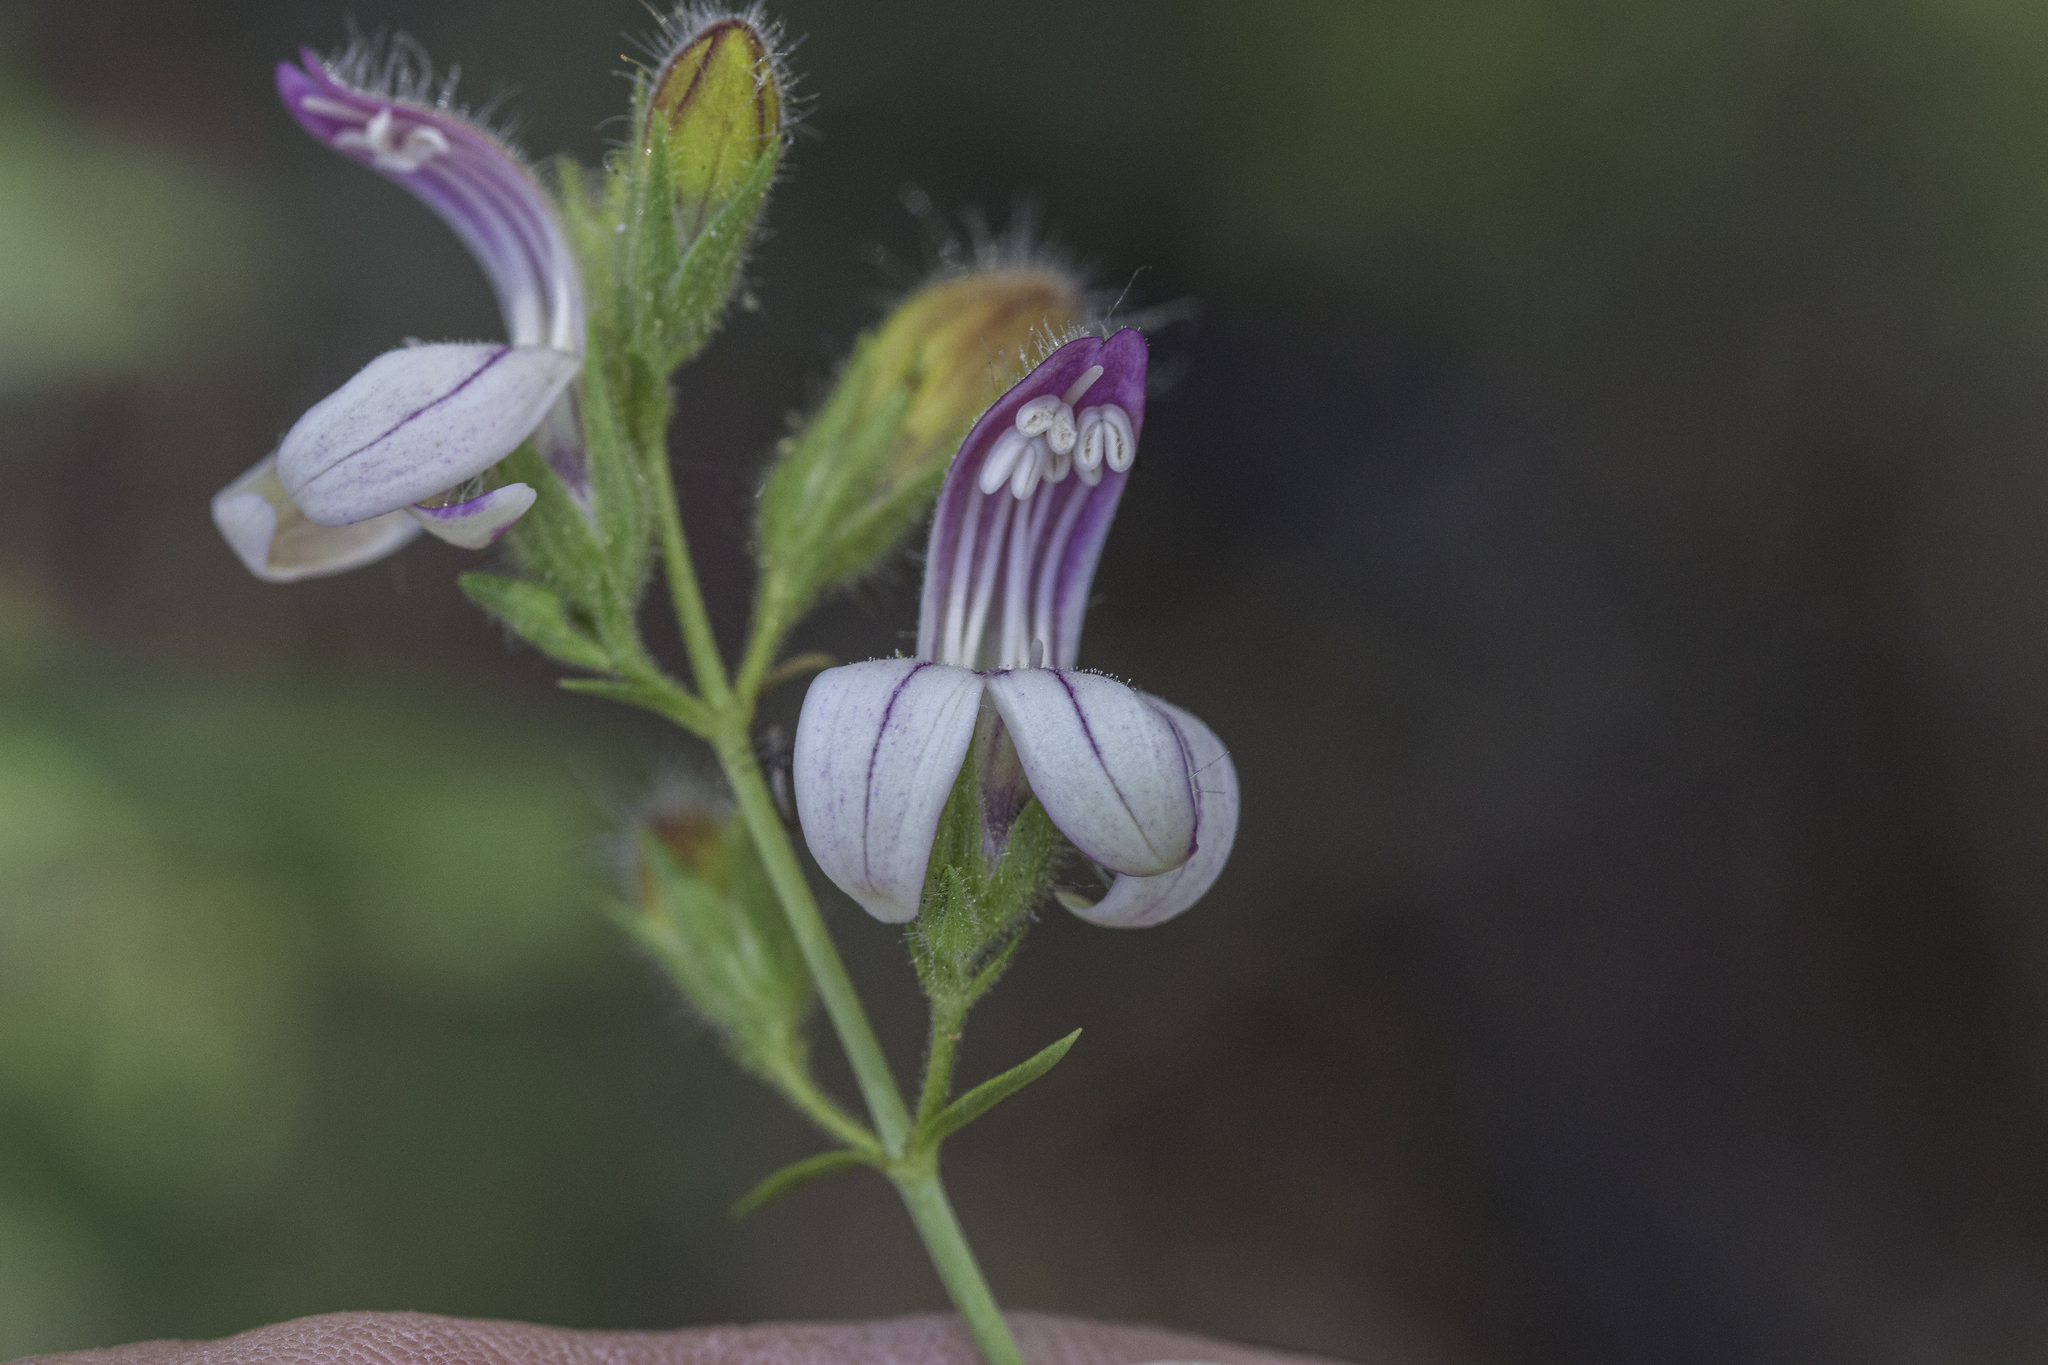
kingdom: Plantae
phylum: Tracheophyta
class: Magnoliopsida
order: Lamiales
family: Plantaginaceae
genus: Keckiella
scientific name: Keckiella breviflora
